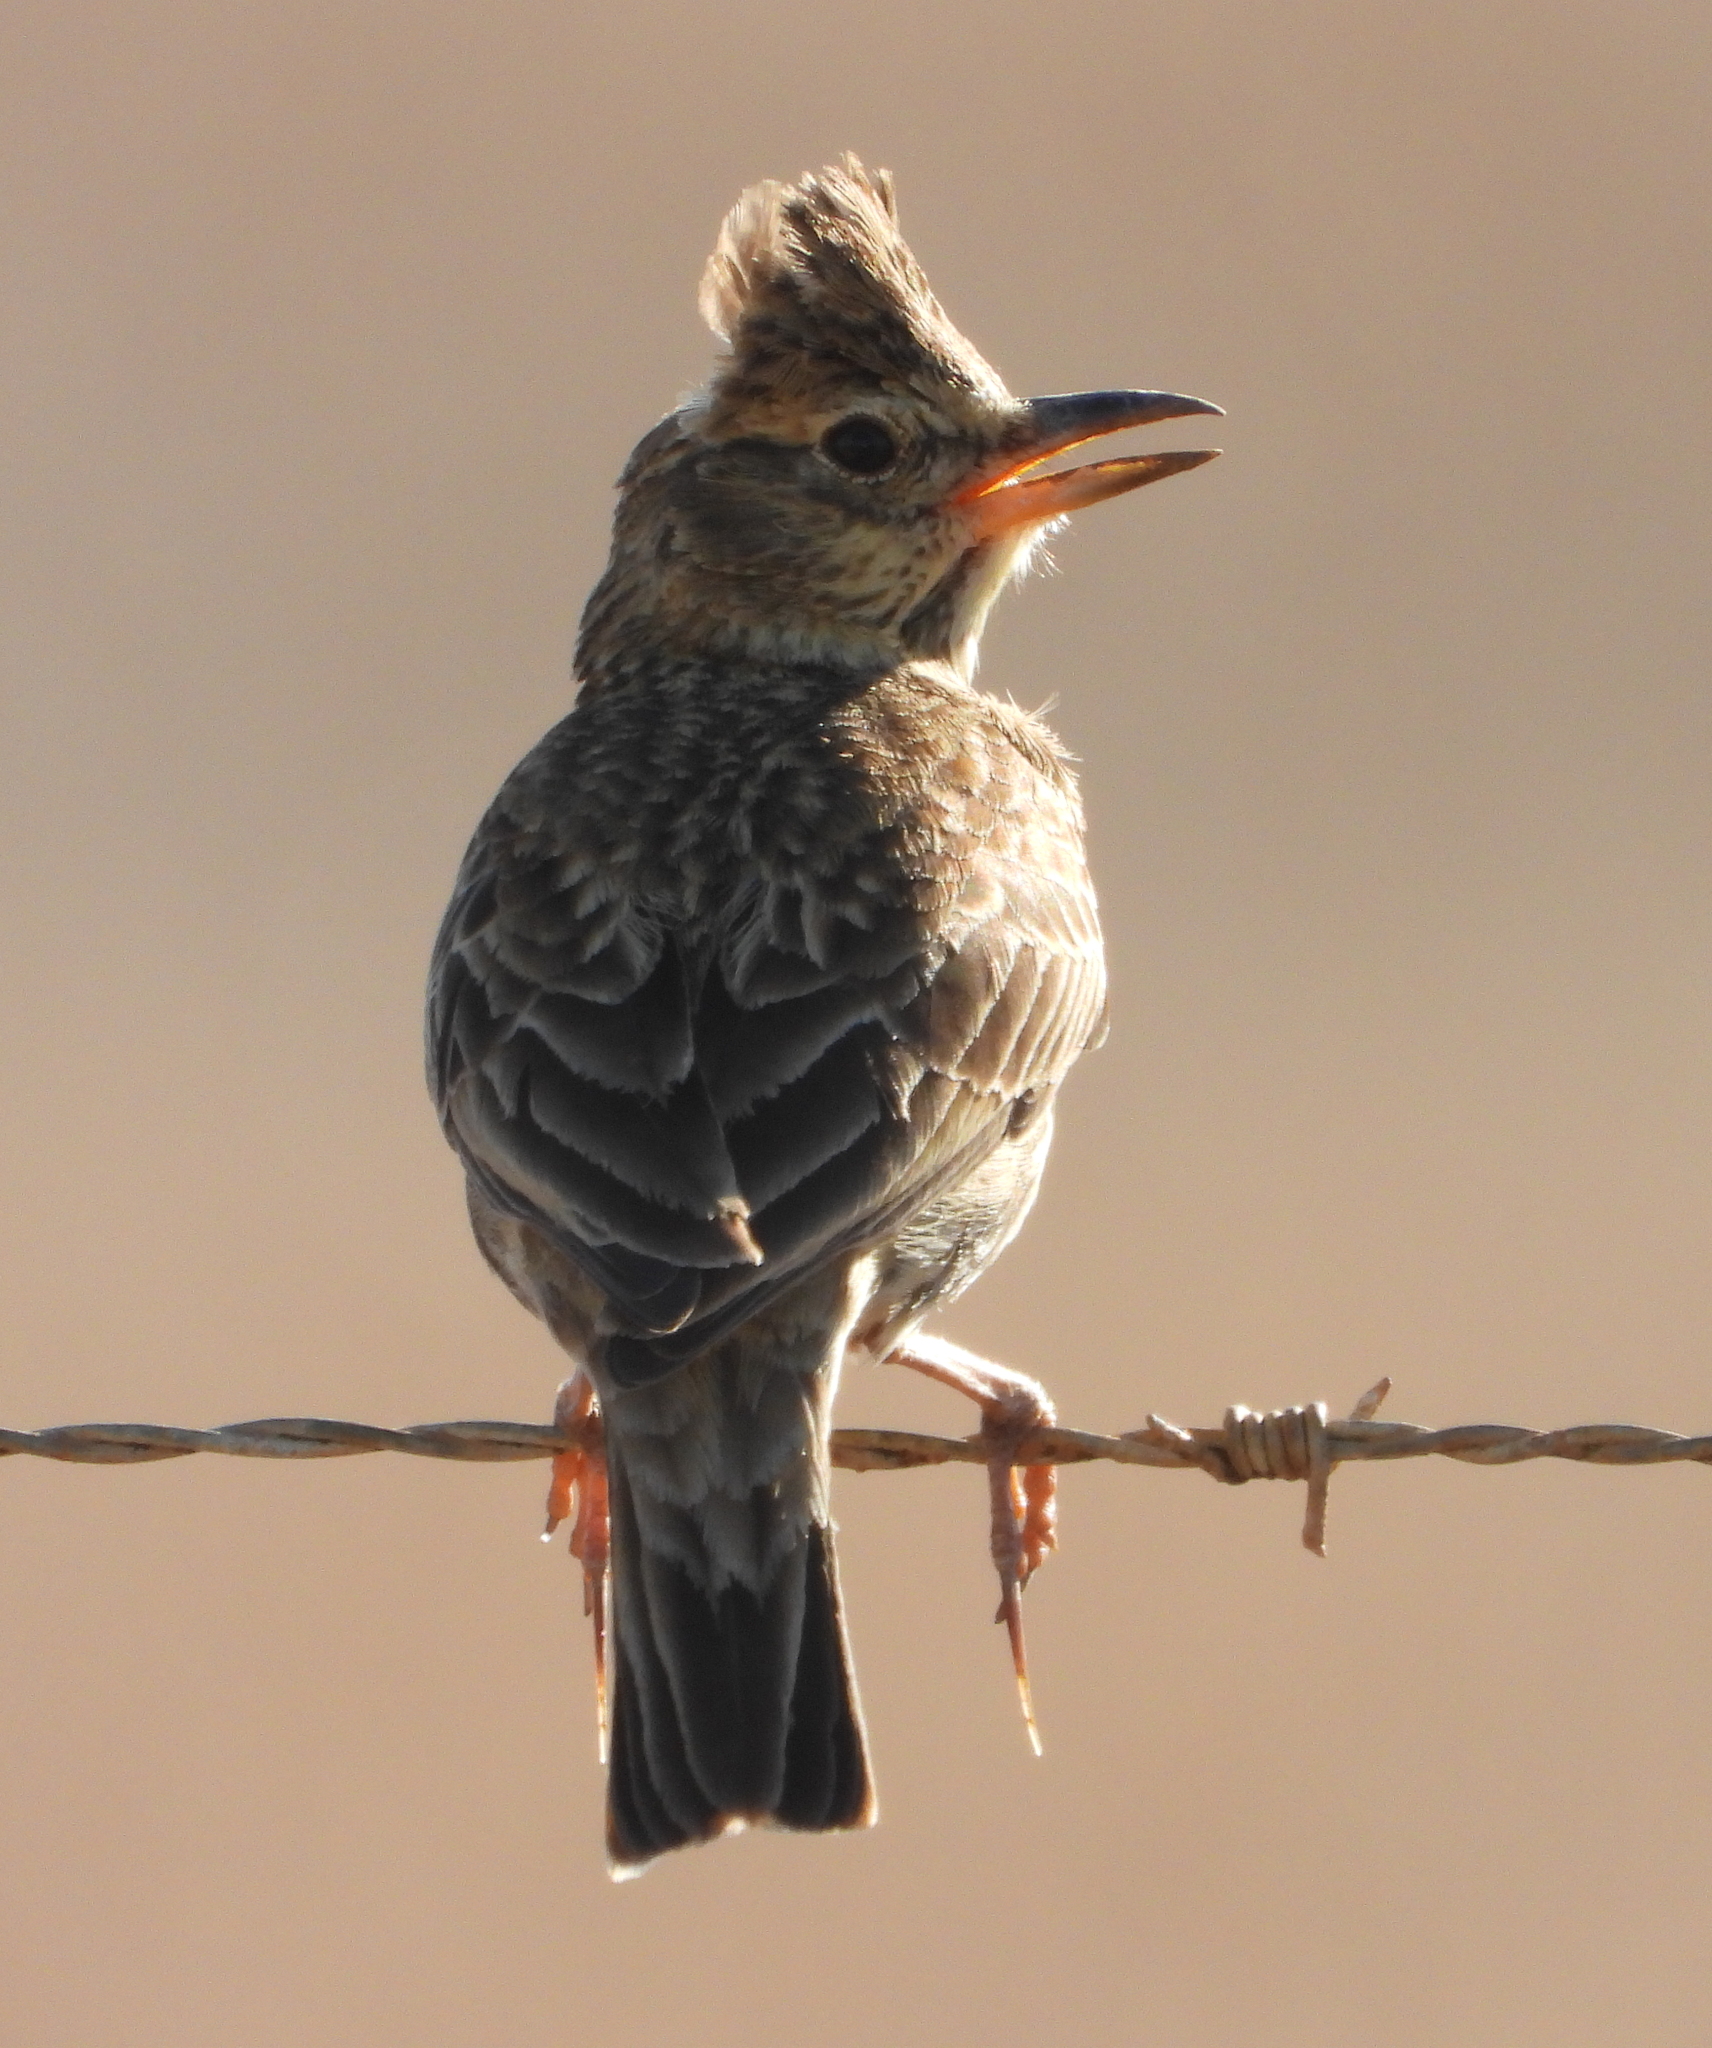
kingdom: Animalia
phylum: Chordata
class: Aves
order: Passeriformes
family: Alaudidae
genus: Galerida
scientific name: Galerida magnirostris
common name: Large-billed lark
